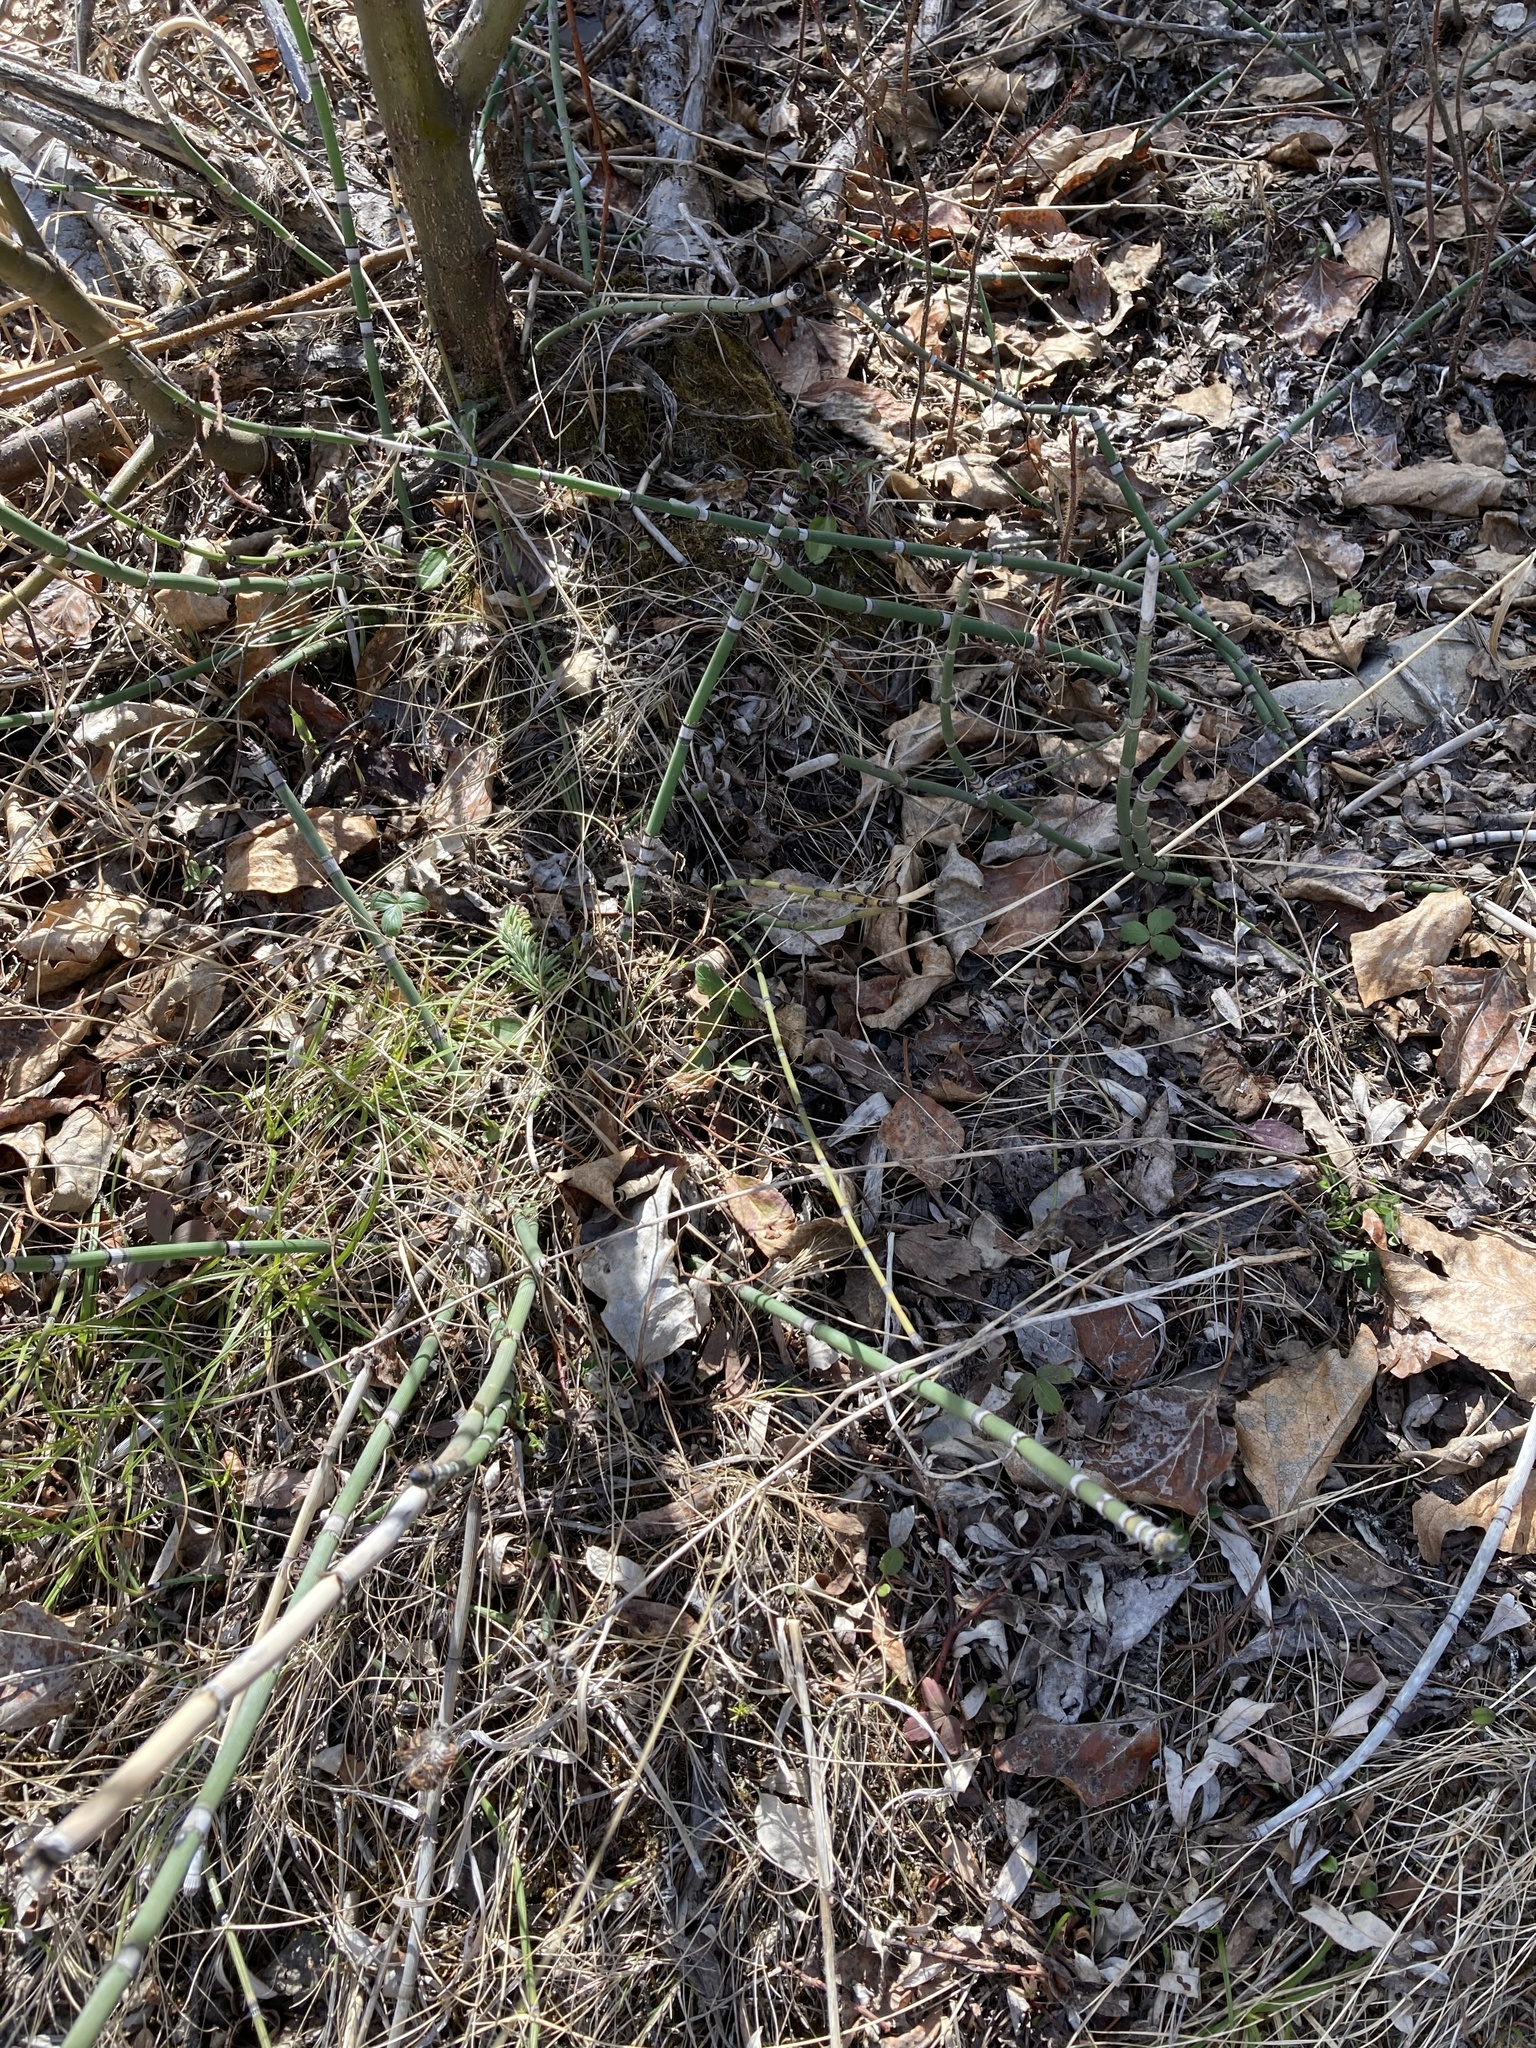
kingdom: Plantae
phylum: Tracheophyta
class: Polypodiopsida
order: Equisetales
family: Equisetaceae
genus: Equisetum
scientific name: Equisetum praealtum
